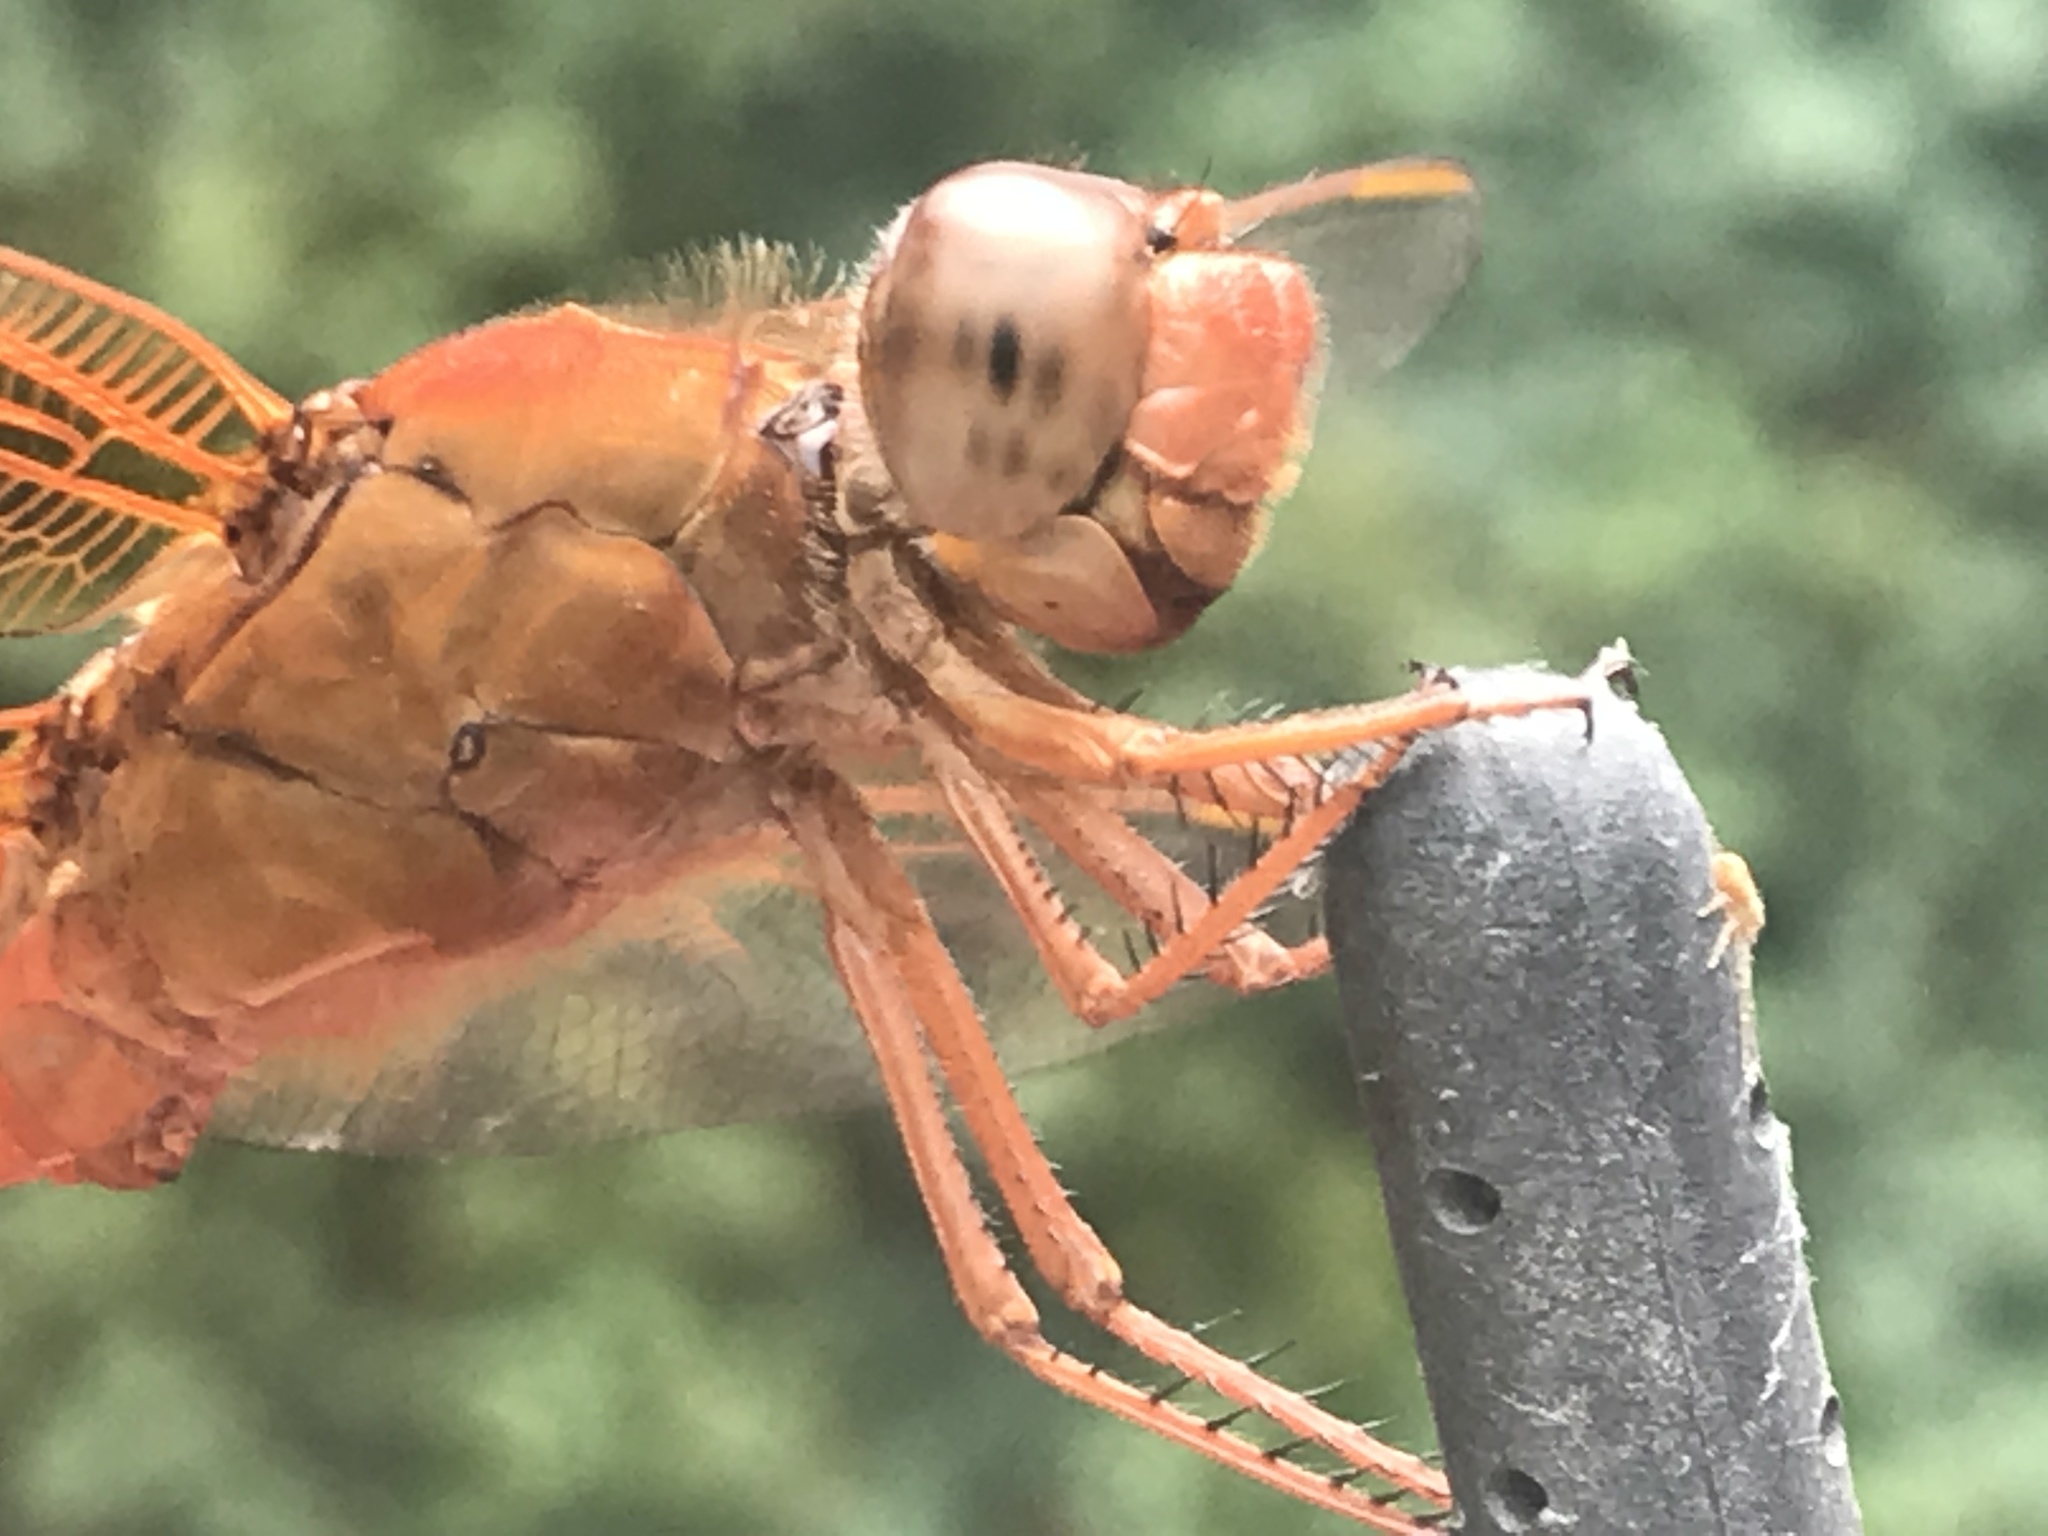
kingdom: Animalia
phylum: Arthropoda
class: Insecta
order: Odonata
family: Libellulidae
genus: Libellula
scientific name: Libellula croceipennis
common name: Neon skimmer
